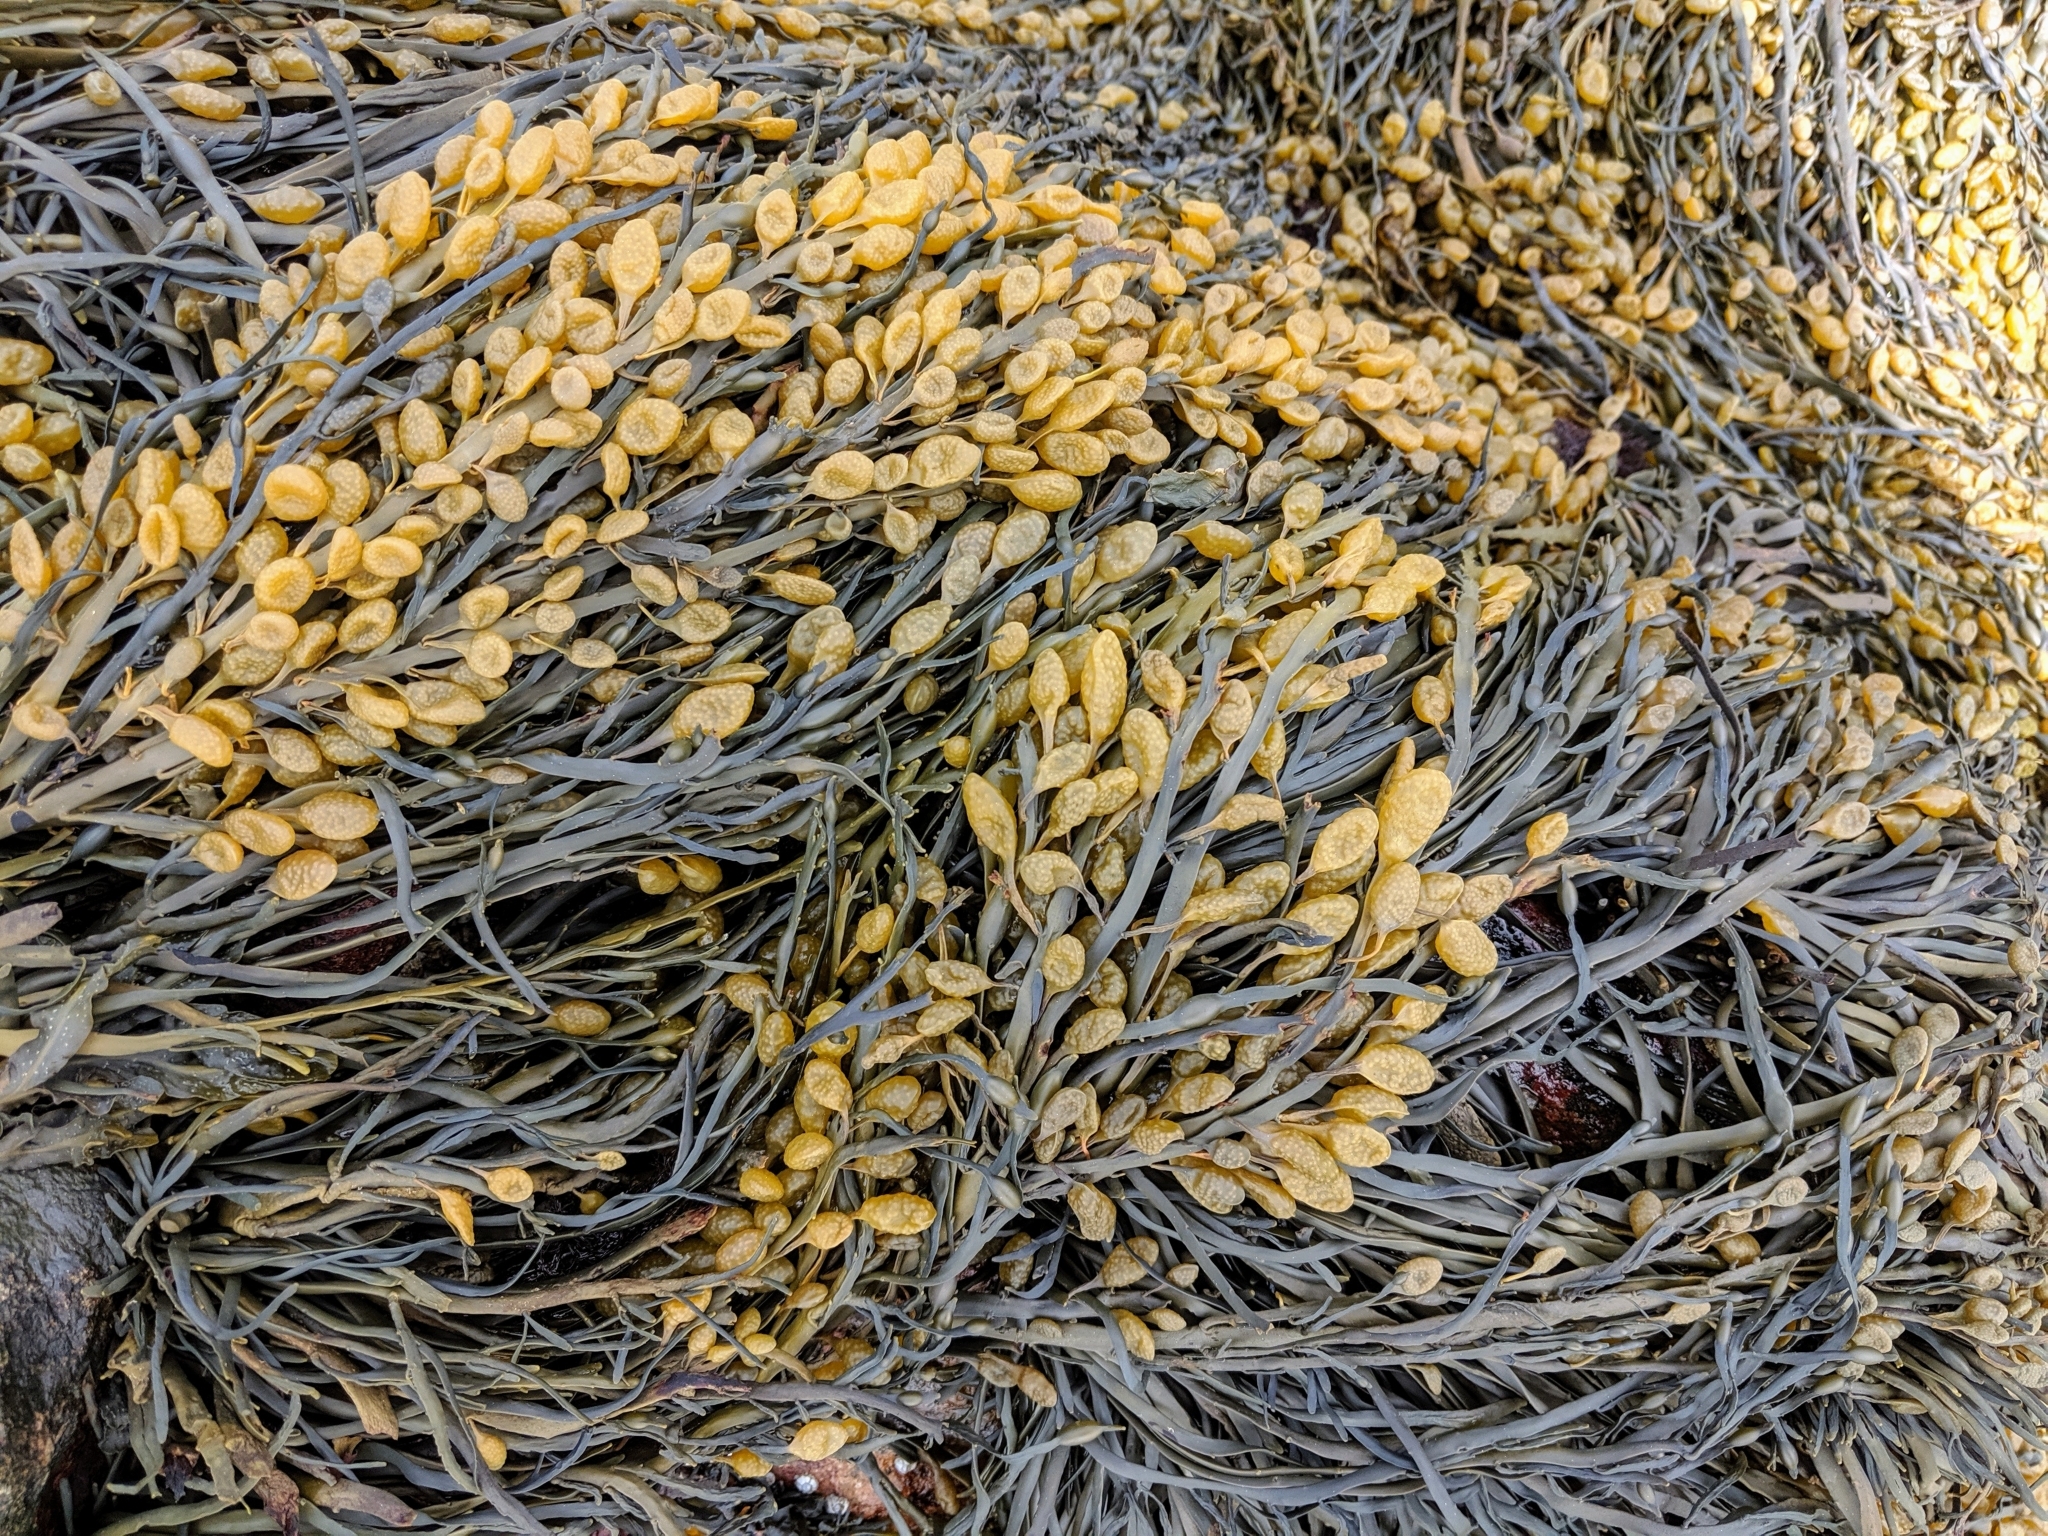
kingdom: Chromista
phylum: Ochrophyta
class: Phaeophyceae
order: Fucales
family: Fucaceae
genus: Ascophyllum
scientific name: Ascophyllum nodosum
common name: Knotted wrack
